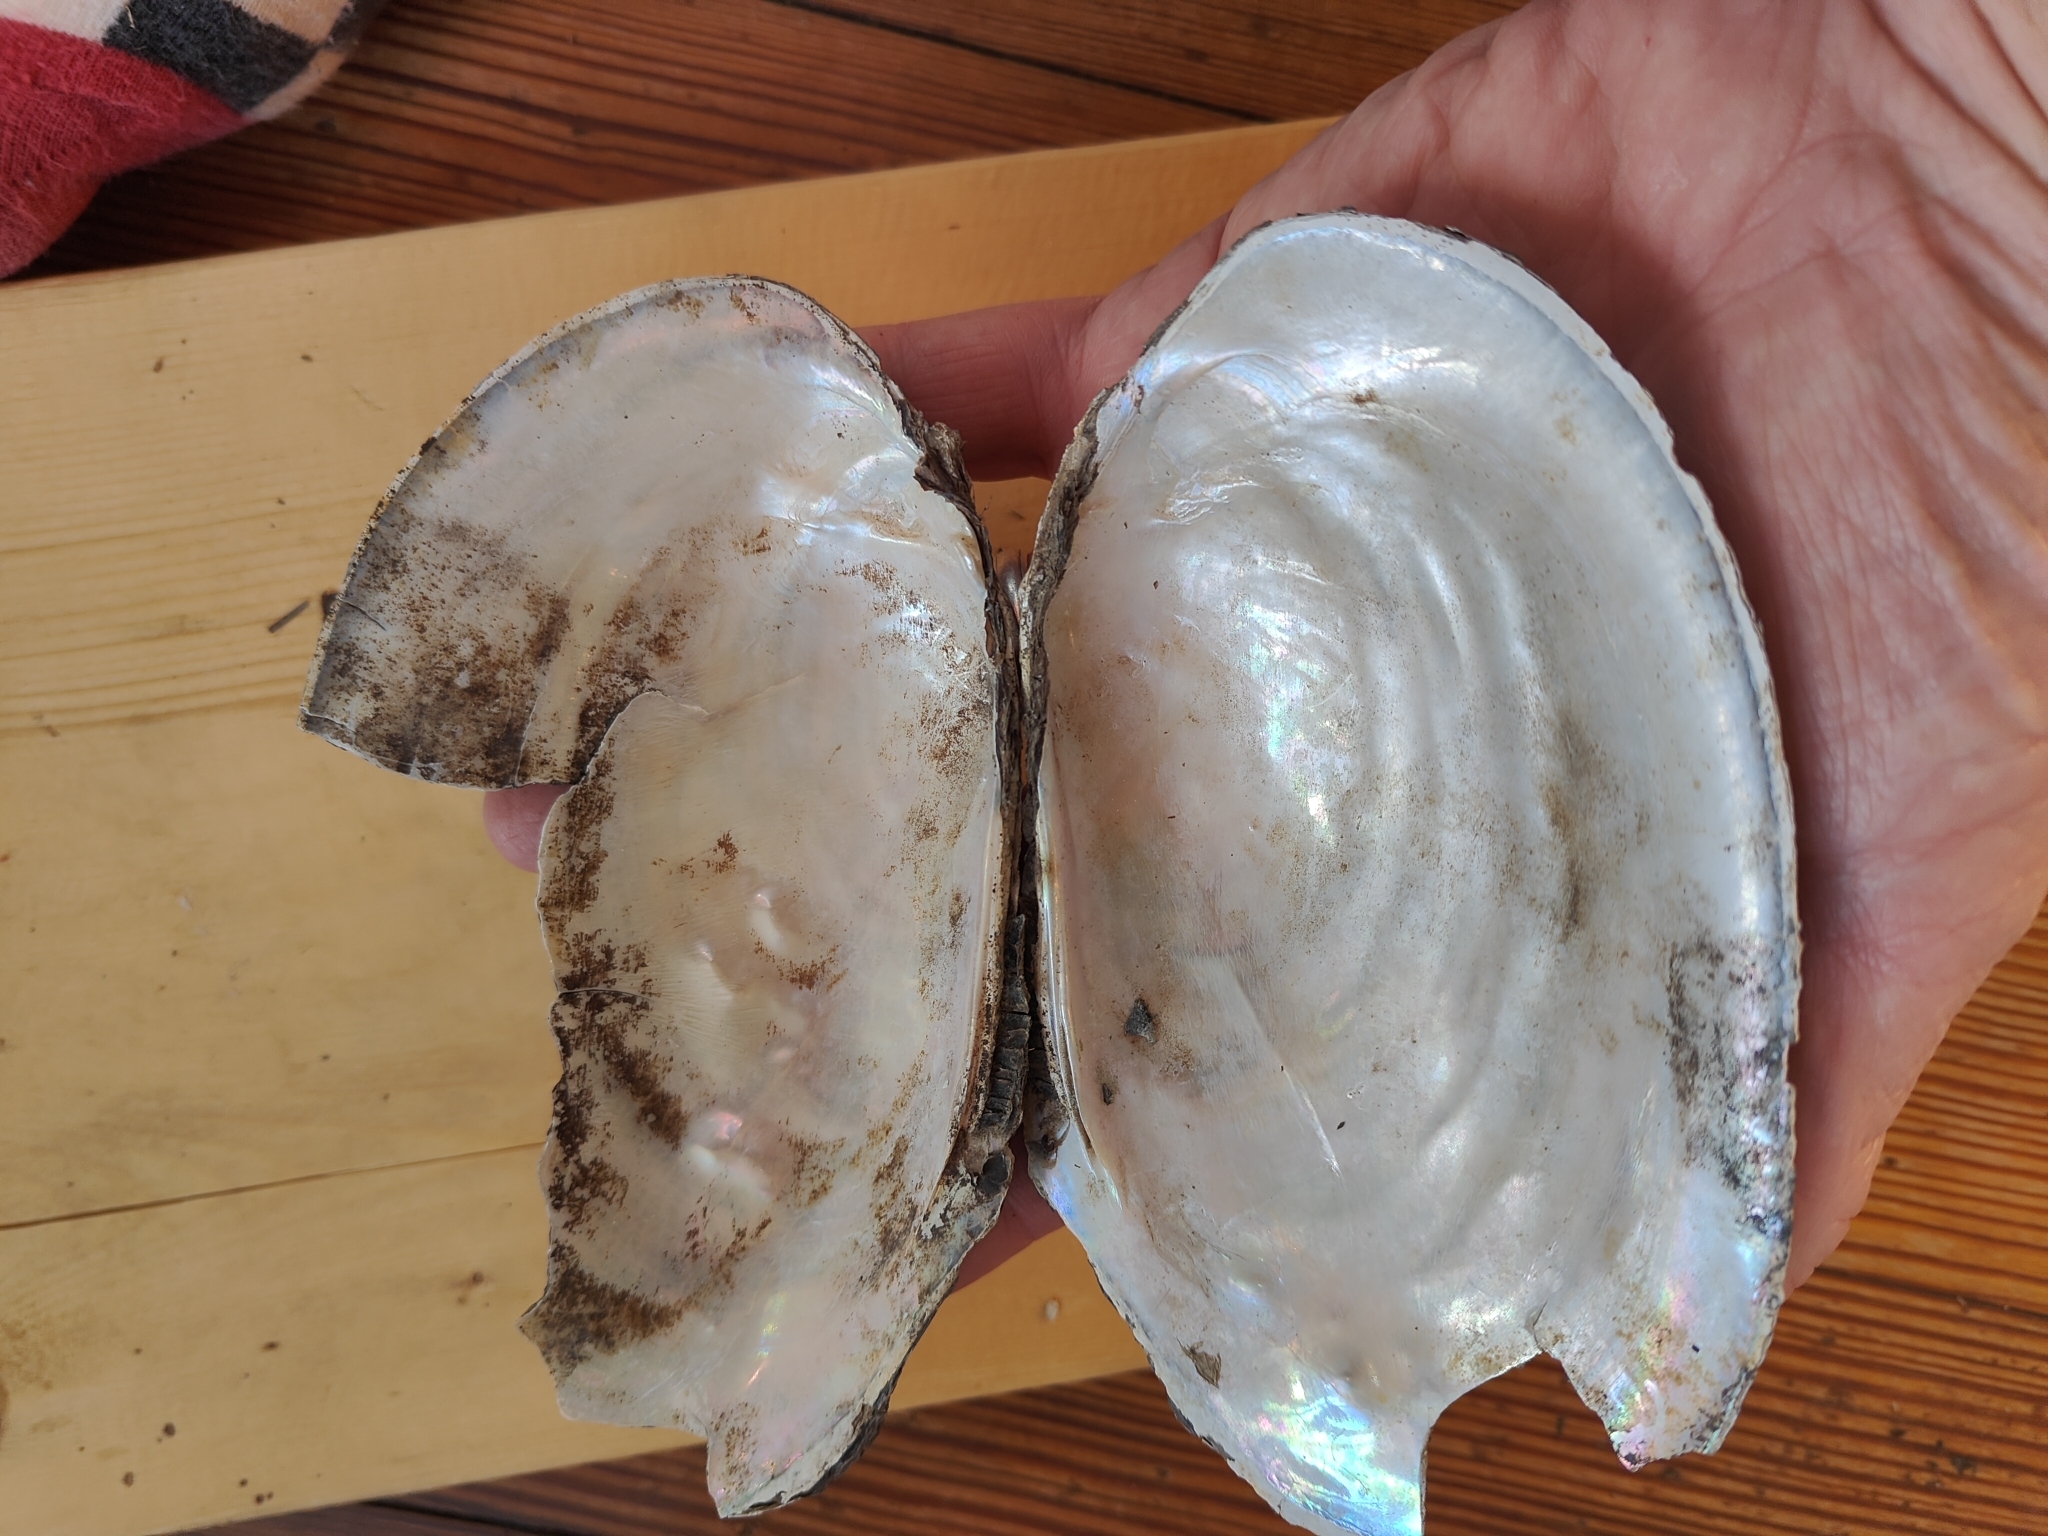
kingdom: Animalia
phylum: Mollusca
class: Bivalvia
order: Unionida
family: Unionidae
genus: Potamilus
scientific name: Potamilus fragilis
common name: Fragile papershell
